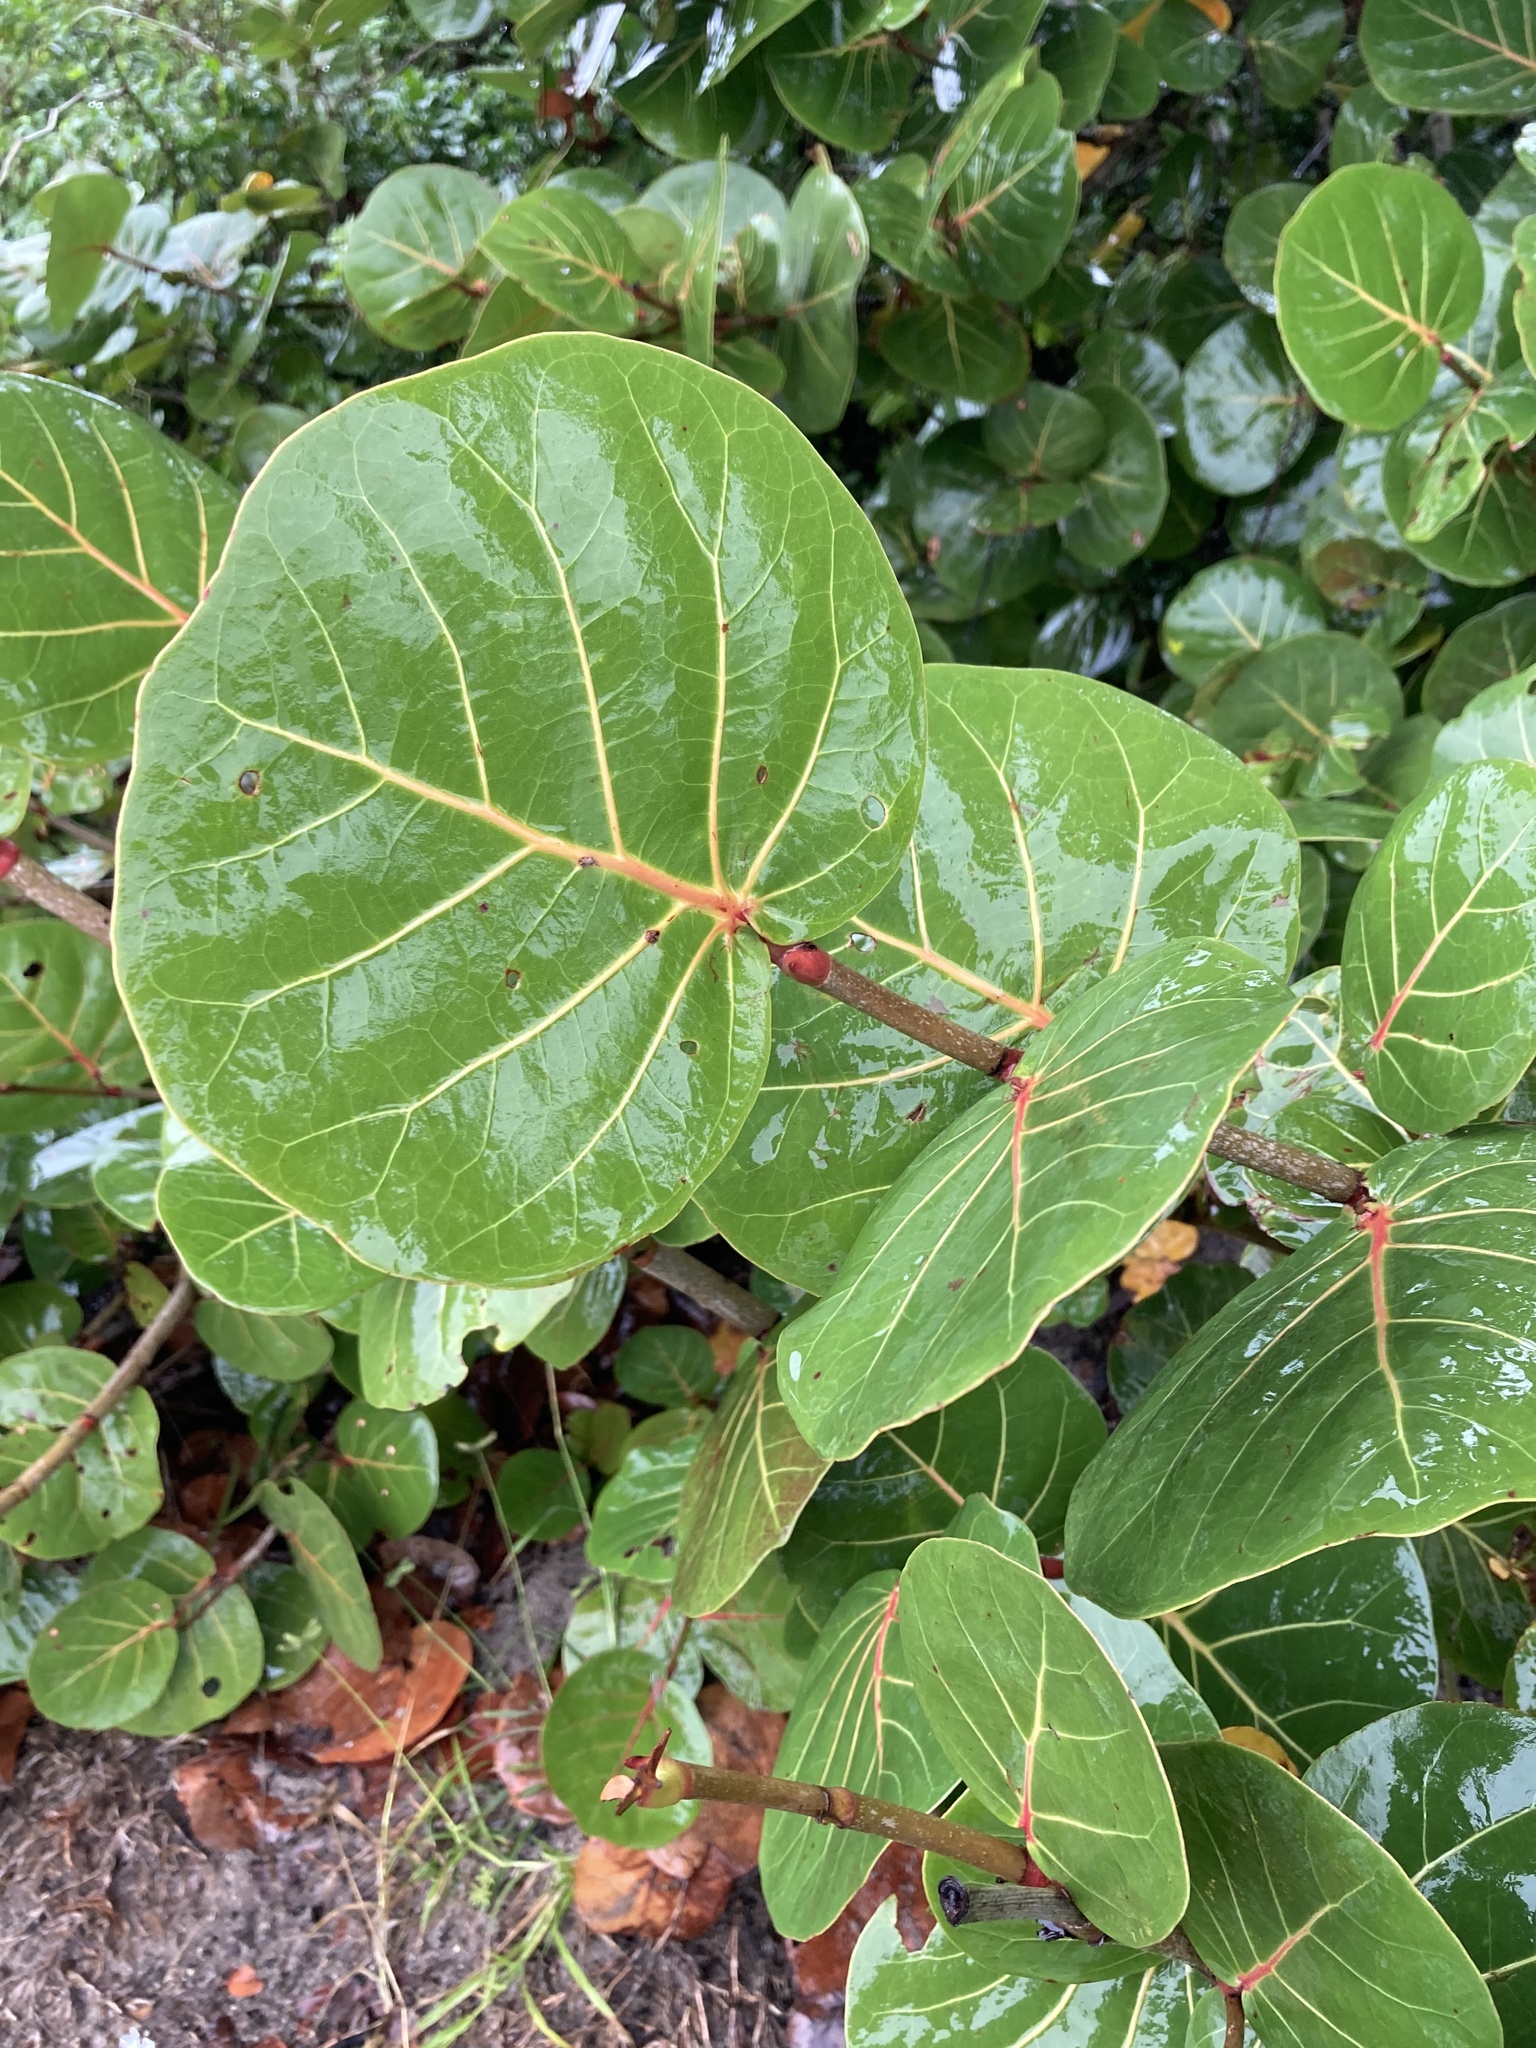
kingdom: Plantae
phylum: Tracheophyta
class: Magnoliopsida
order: Caryophyllales
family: Polygonaceae
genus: Coccoloba
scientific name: Coccoloba uvifera
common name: Seagrape
